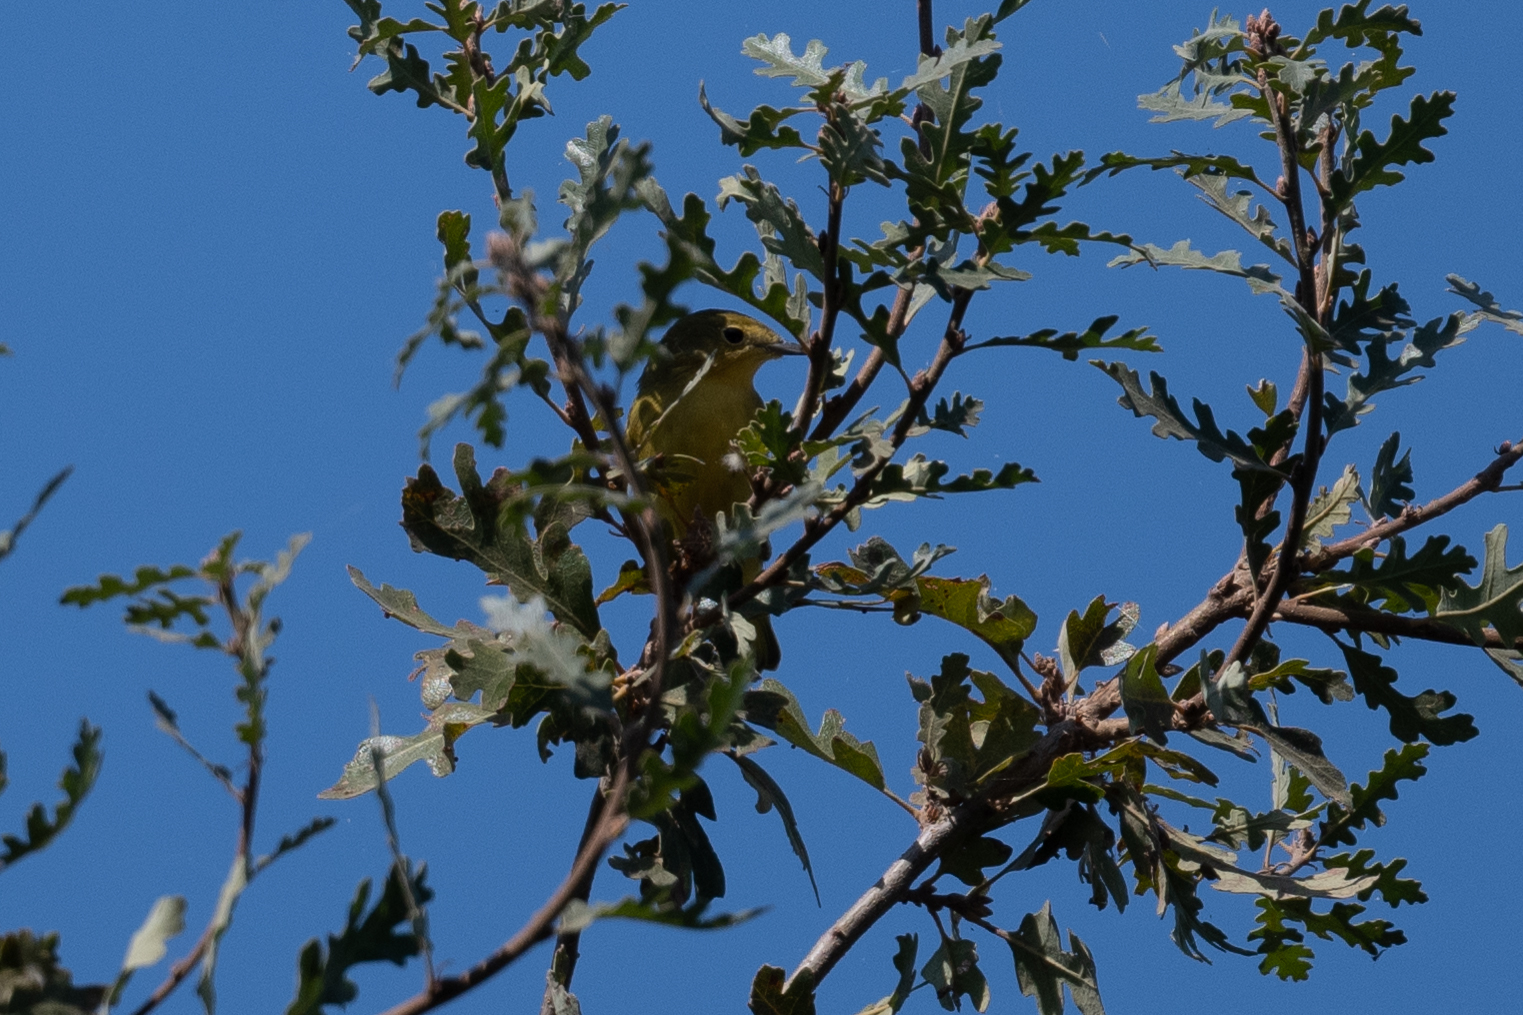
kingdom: Animalia
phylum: Chordata
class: Aves
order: Passeriformes
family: Parulidae
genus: Setophaga
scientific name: Setophaga petechia
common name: Yellow warbler
